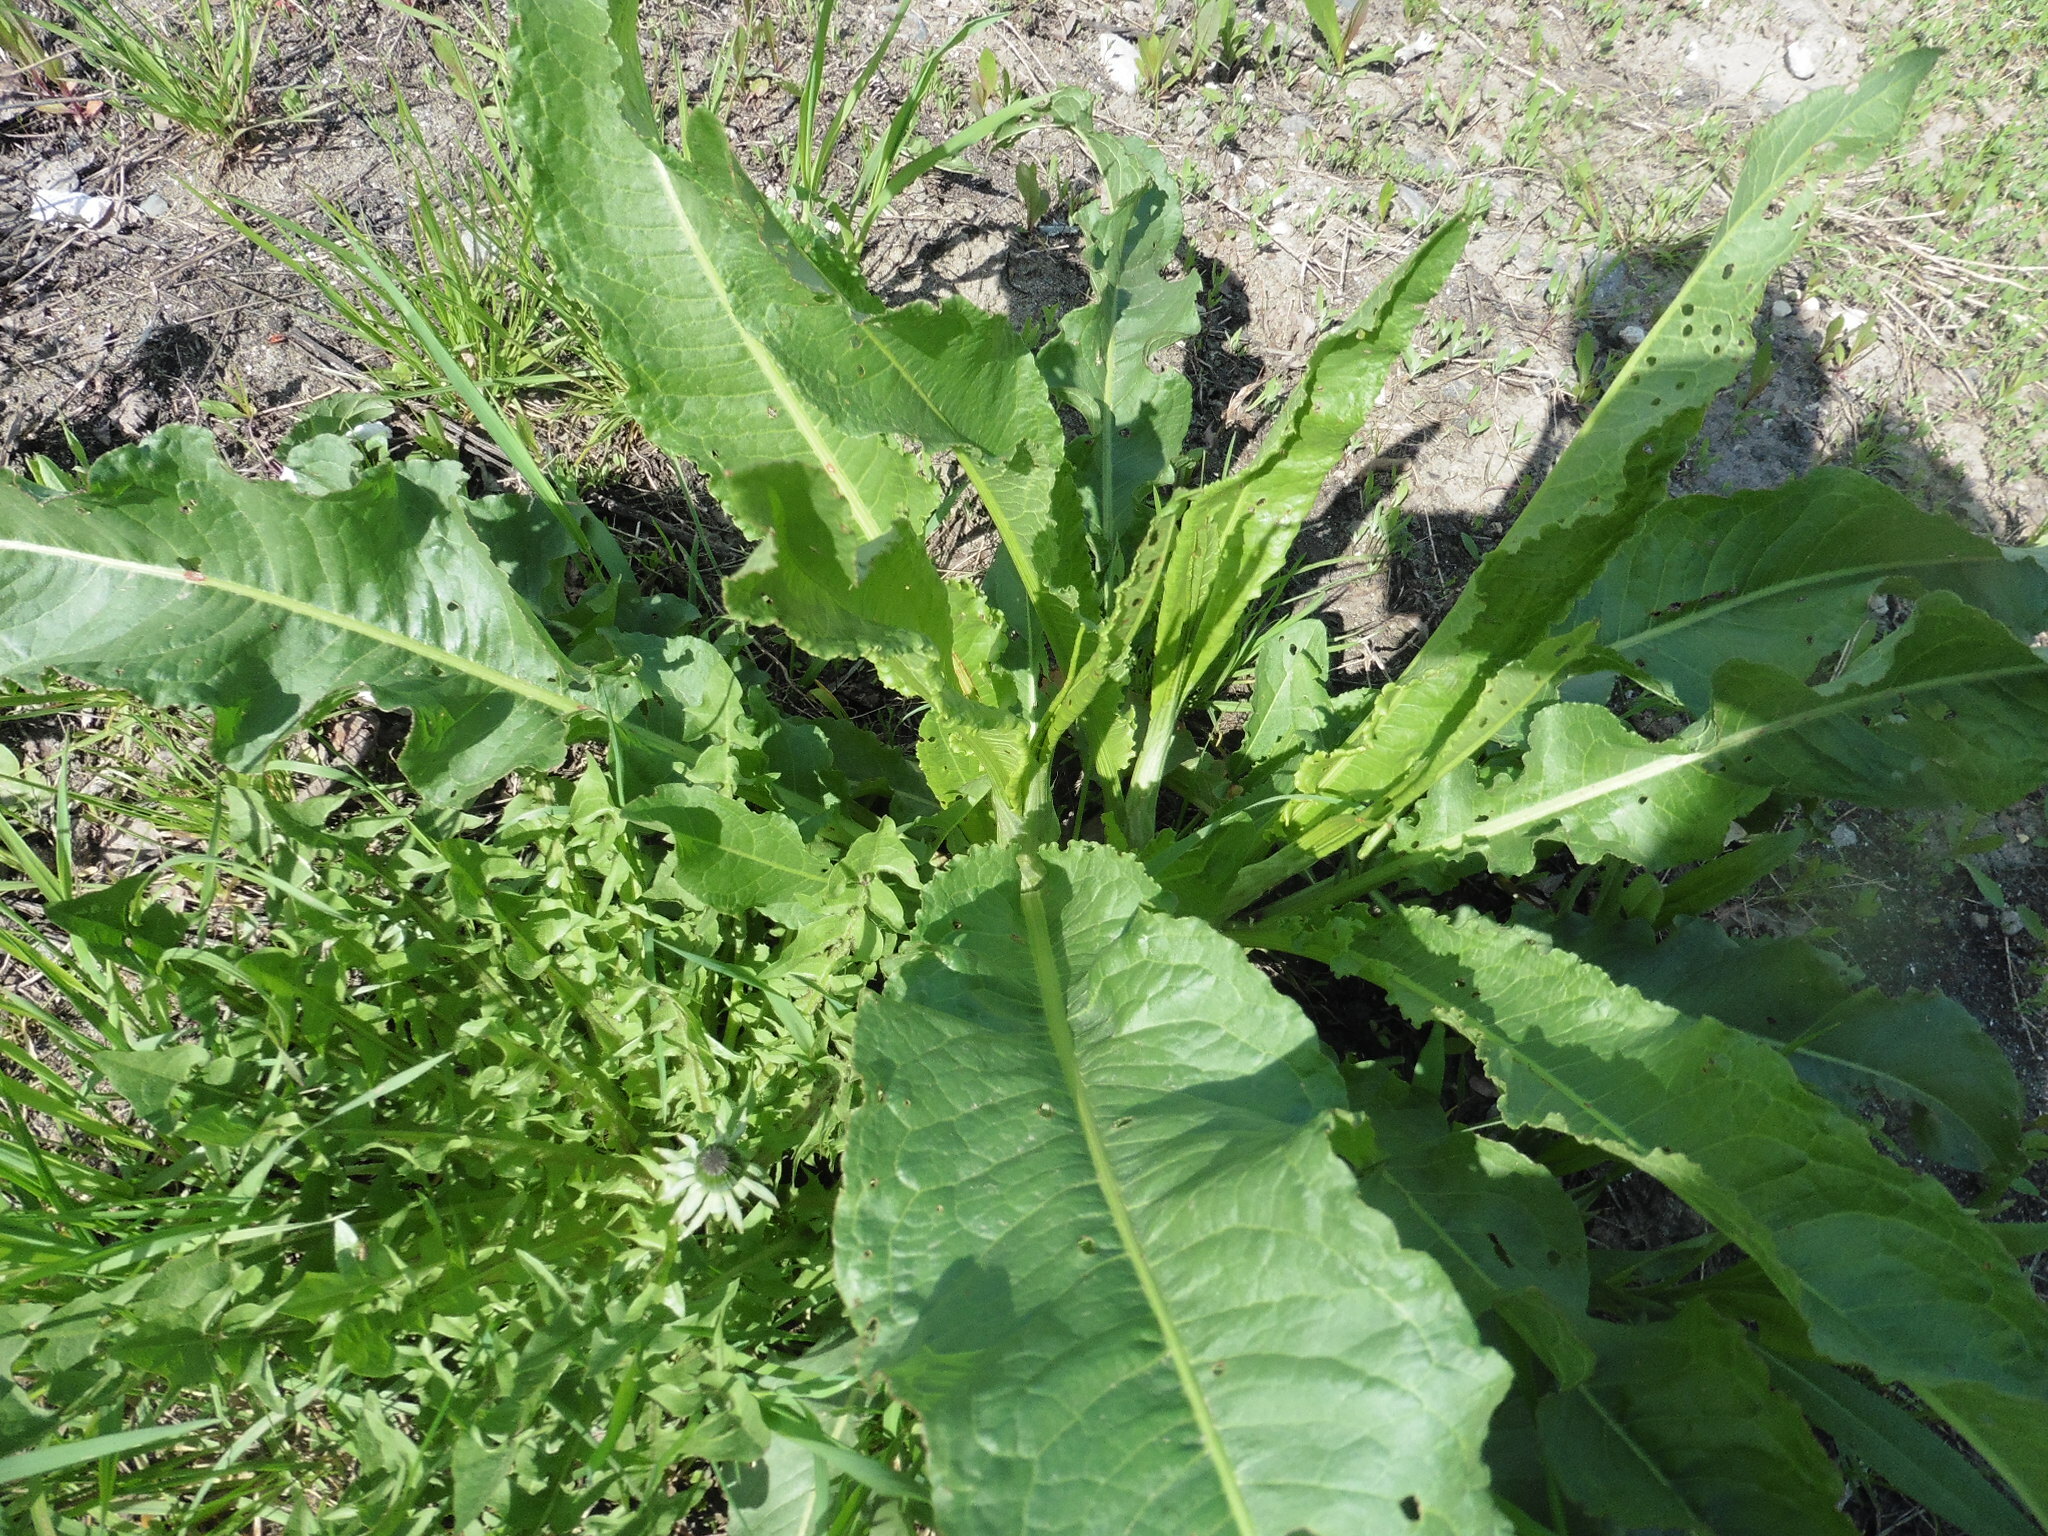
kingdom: Plantae
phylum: Tracheophyta
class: Magnoliopsida
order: Caryophyllales
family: Polygonaceae
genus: Rumex
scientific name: Rumex crispus
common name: Curled dock
